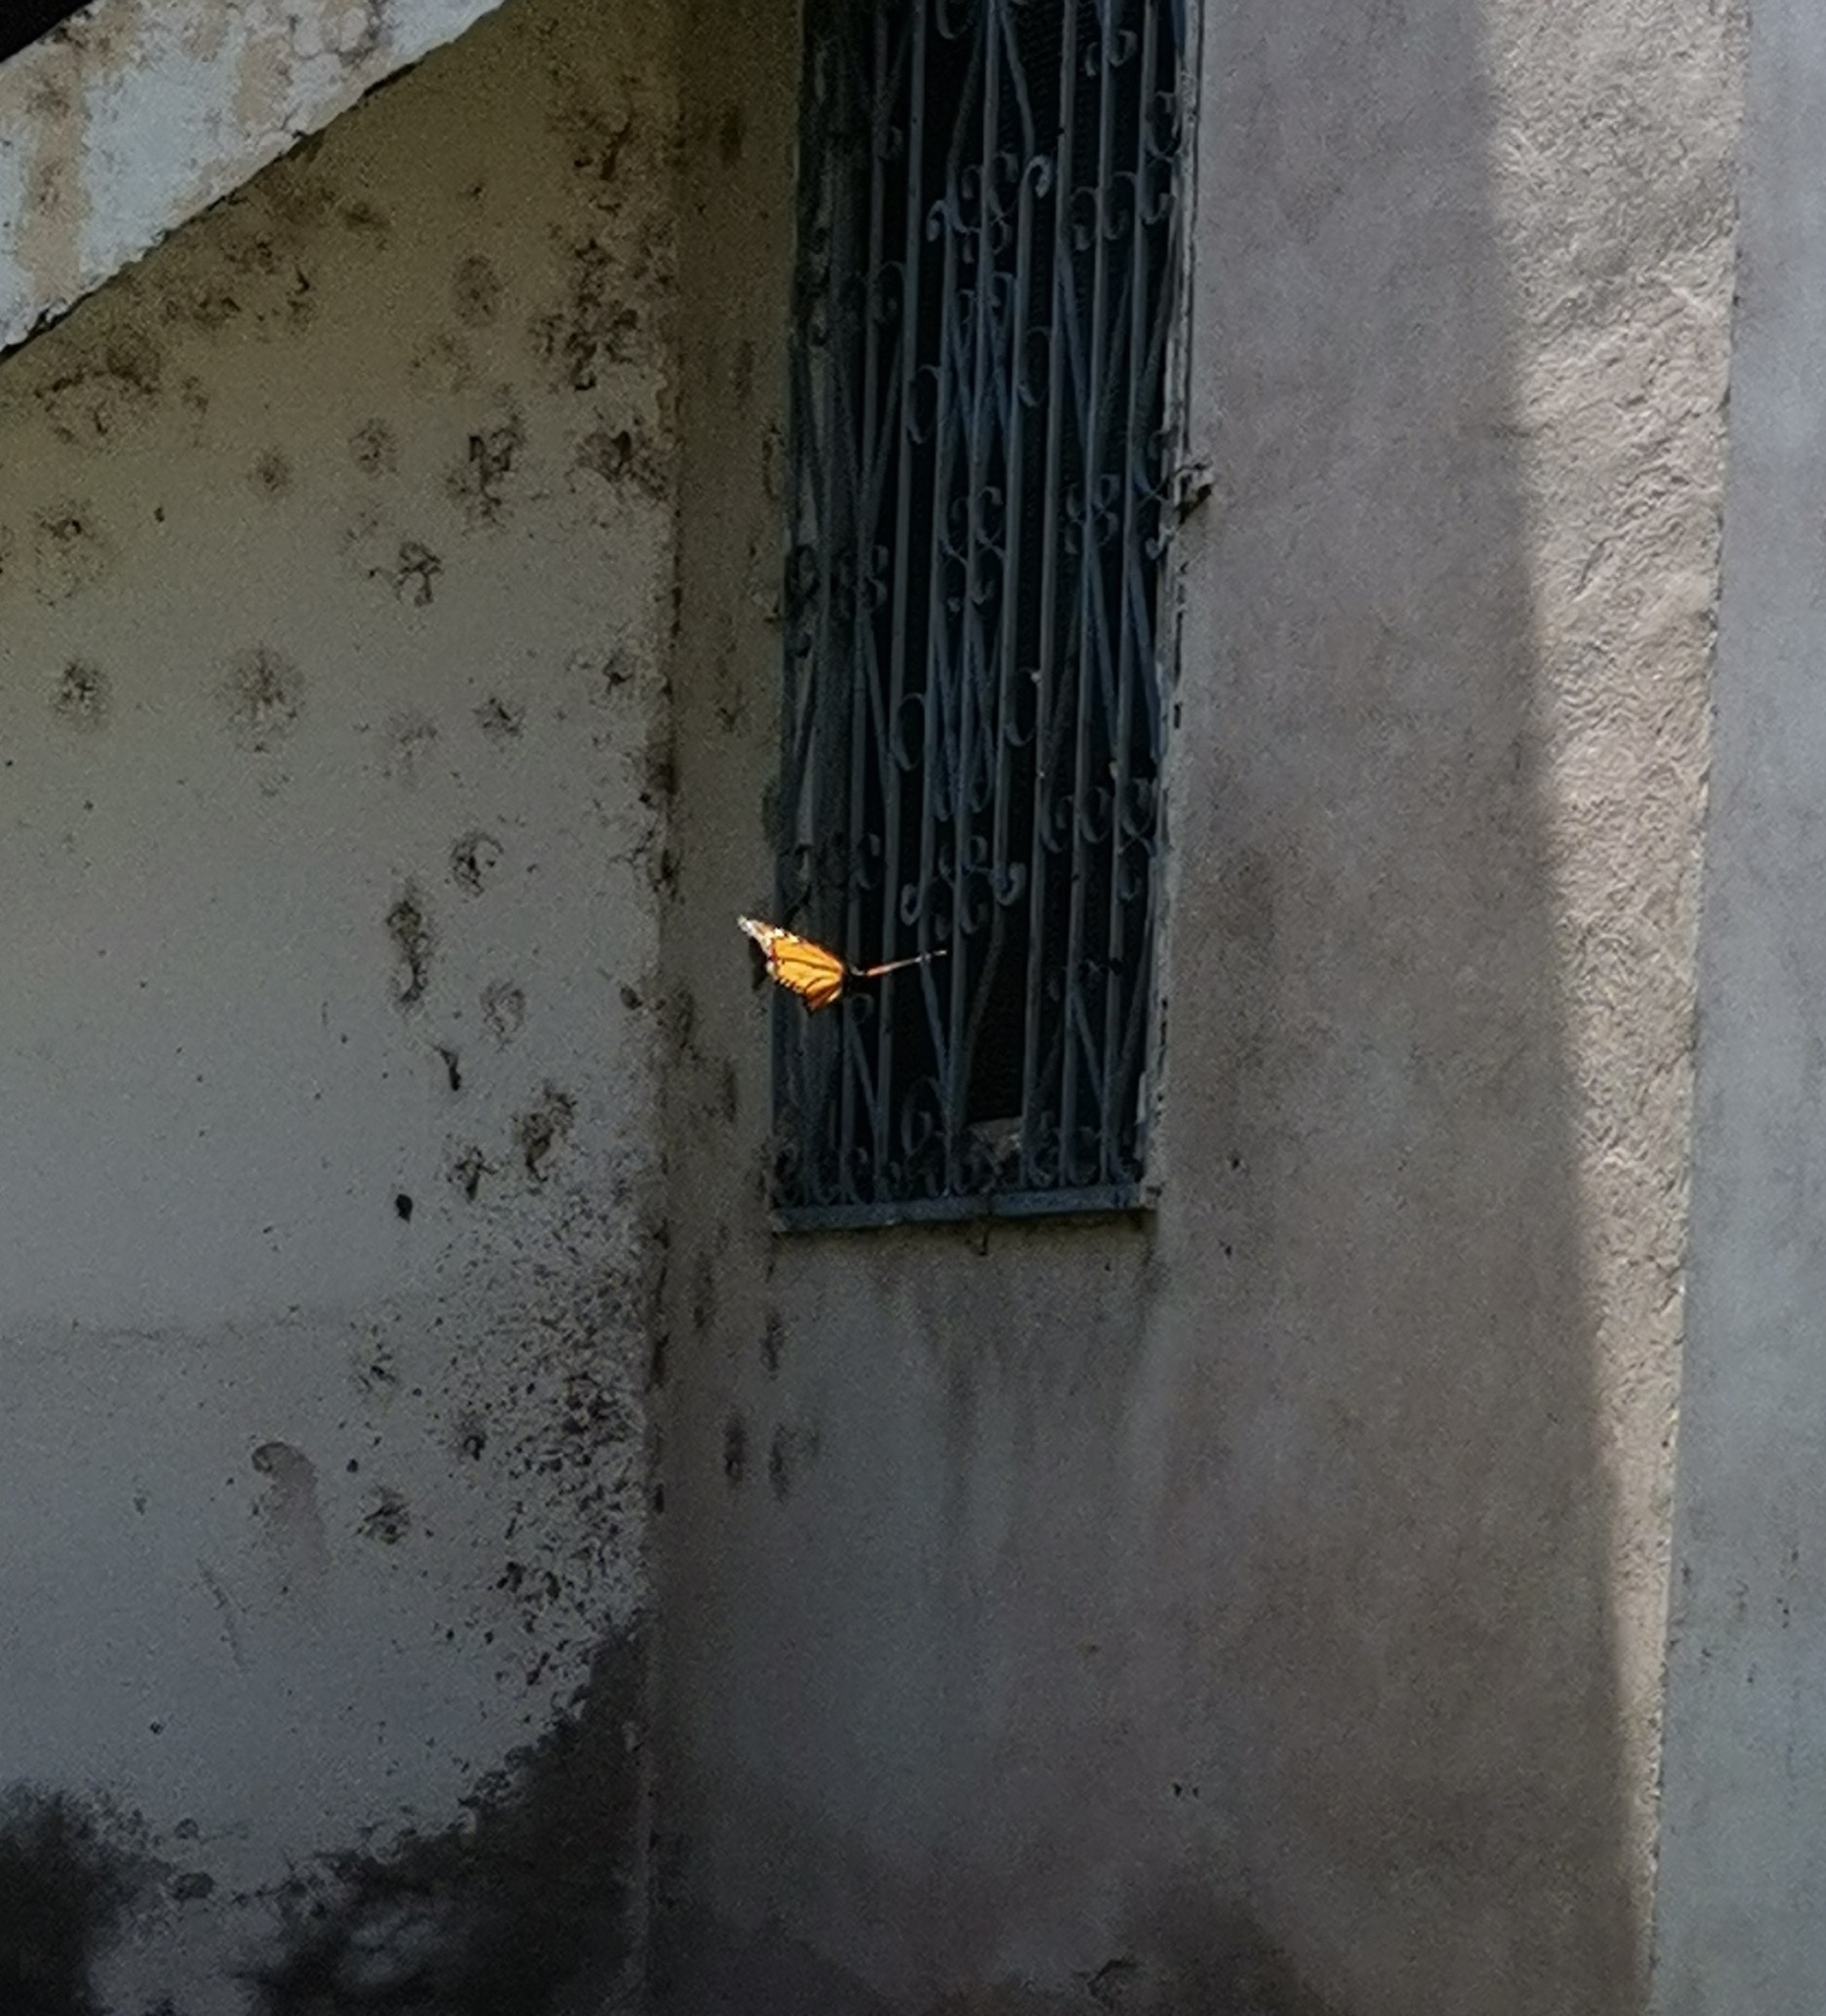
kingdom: Animalia
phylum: Arthropoda
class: Insecta
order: Lepidoptera
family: Nymphalidae
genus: Danaus
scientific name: Danaus plexippus
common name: Monarch
